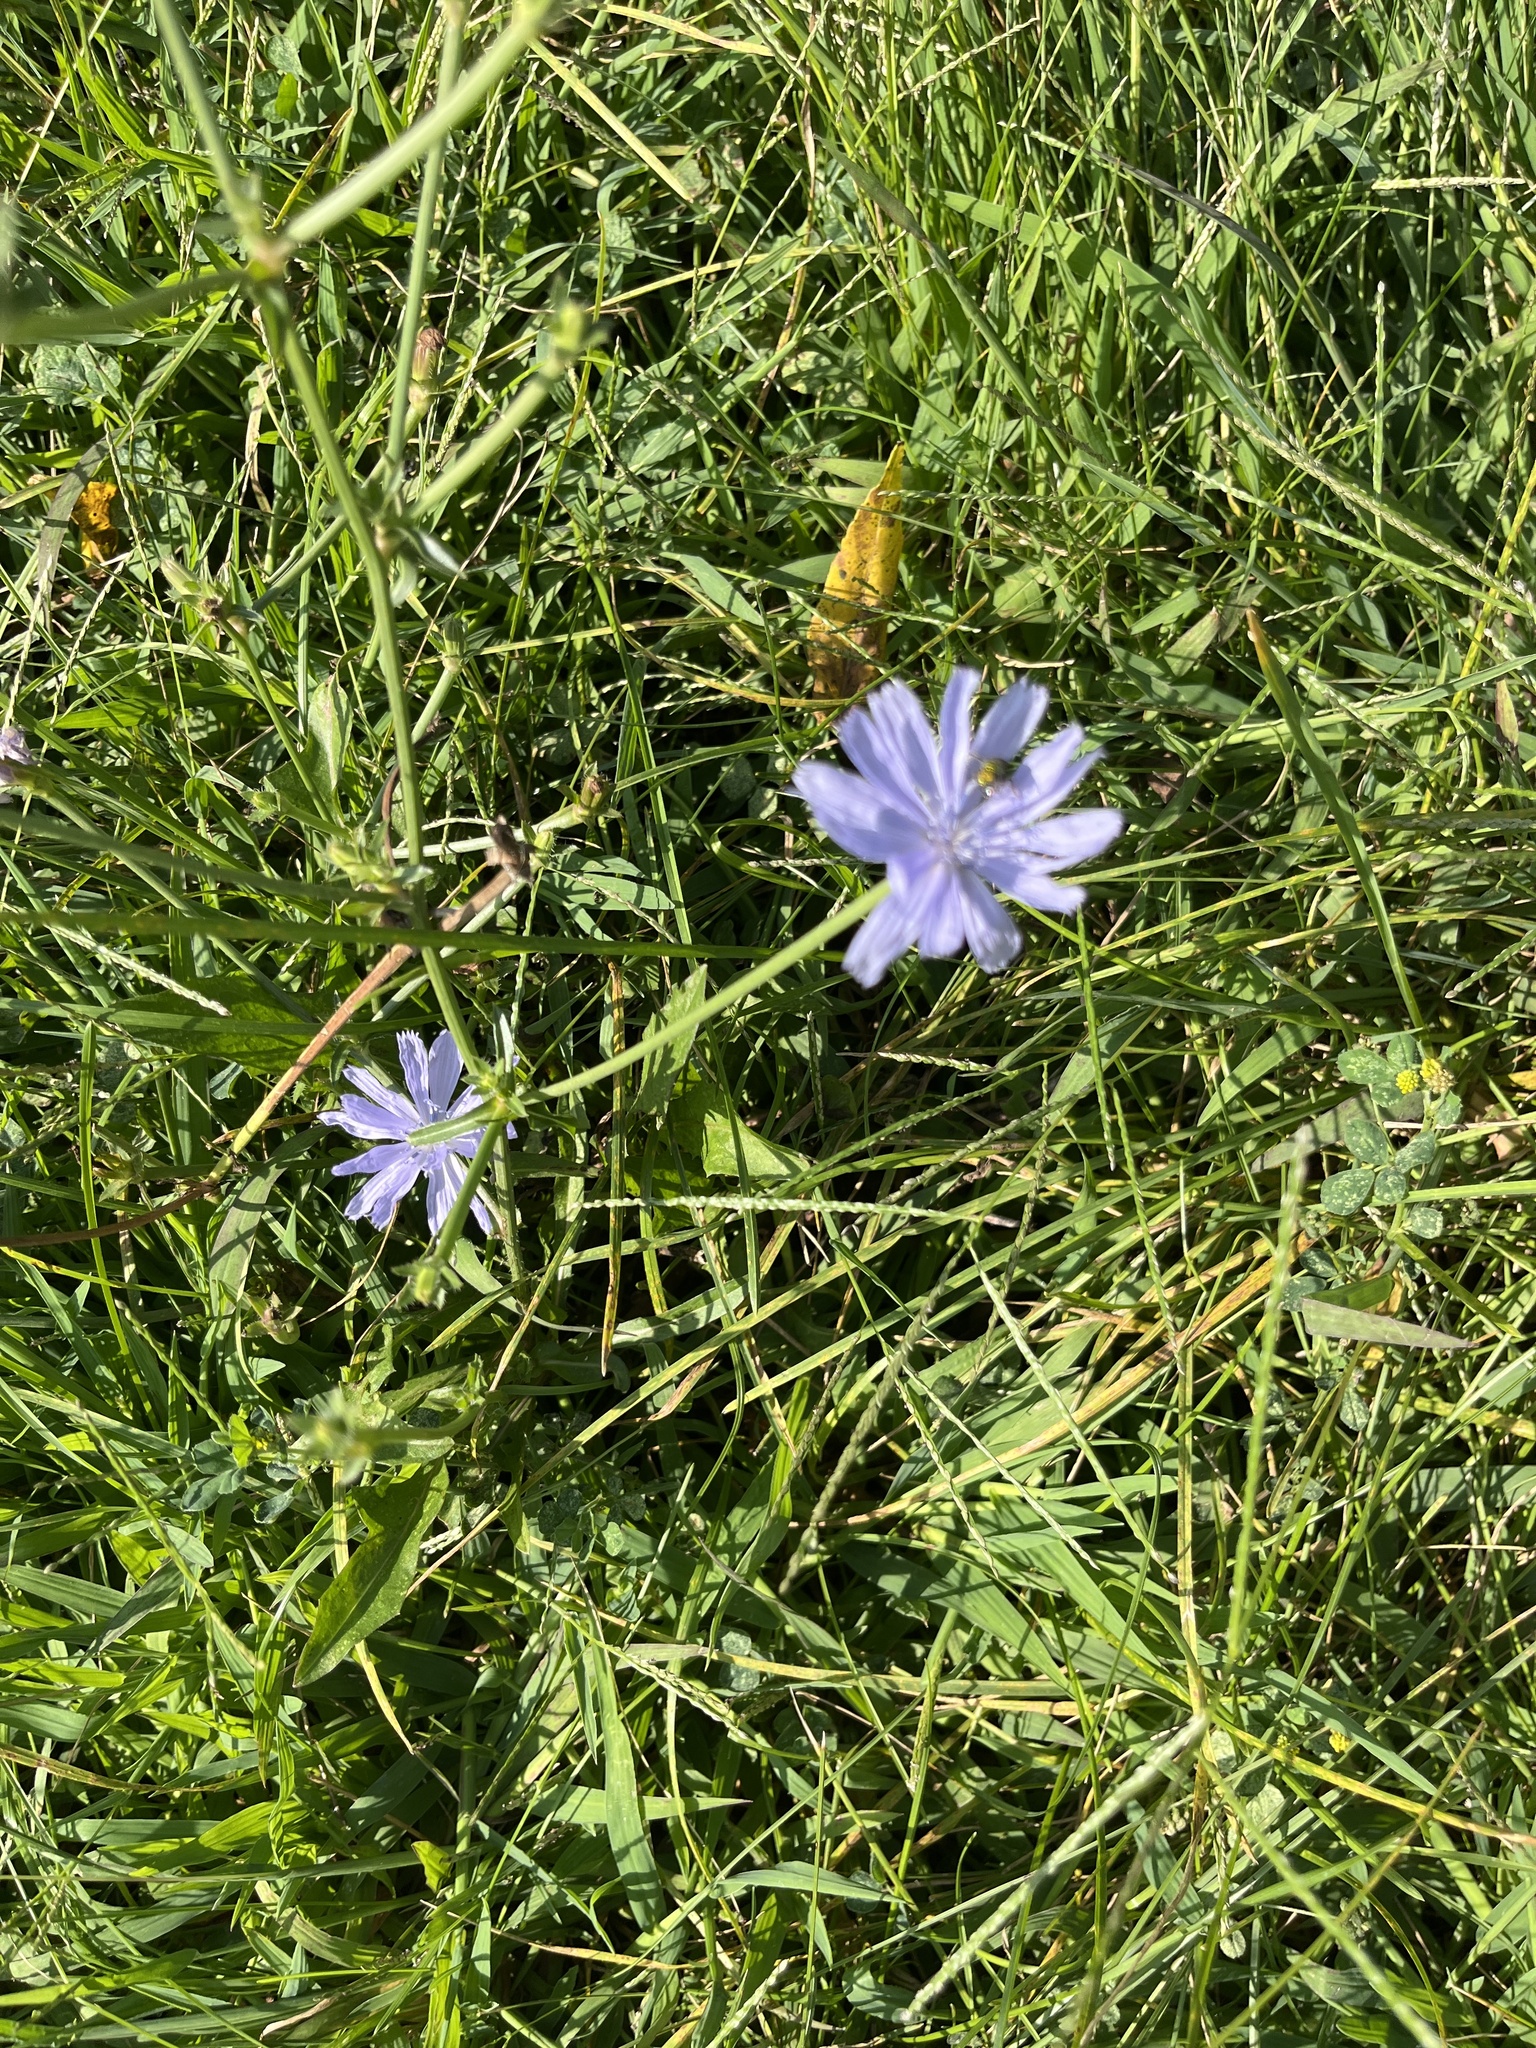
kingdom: Plantae
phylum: Tracheophyta
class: Magnoliopsida
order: Asterales
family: Asteraceae
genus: Cichorium
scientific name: Cichorium intybus
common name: Chicory
